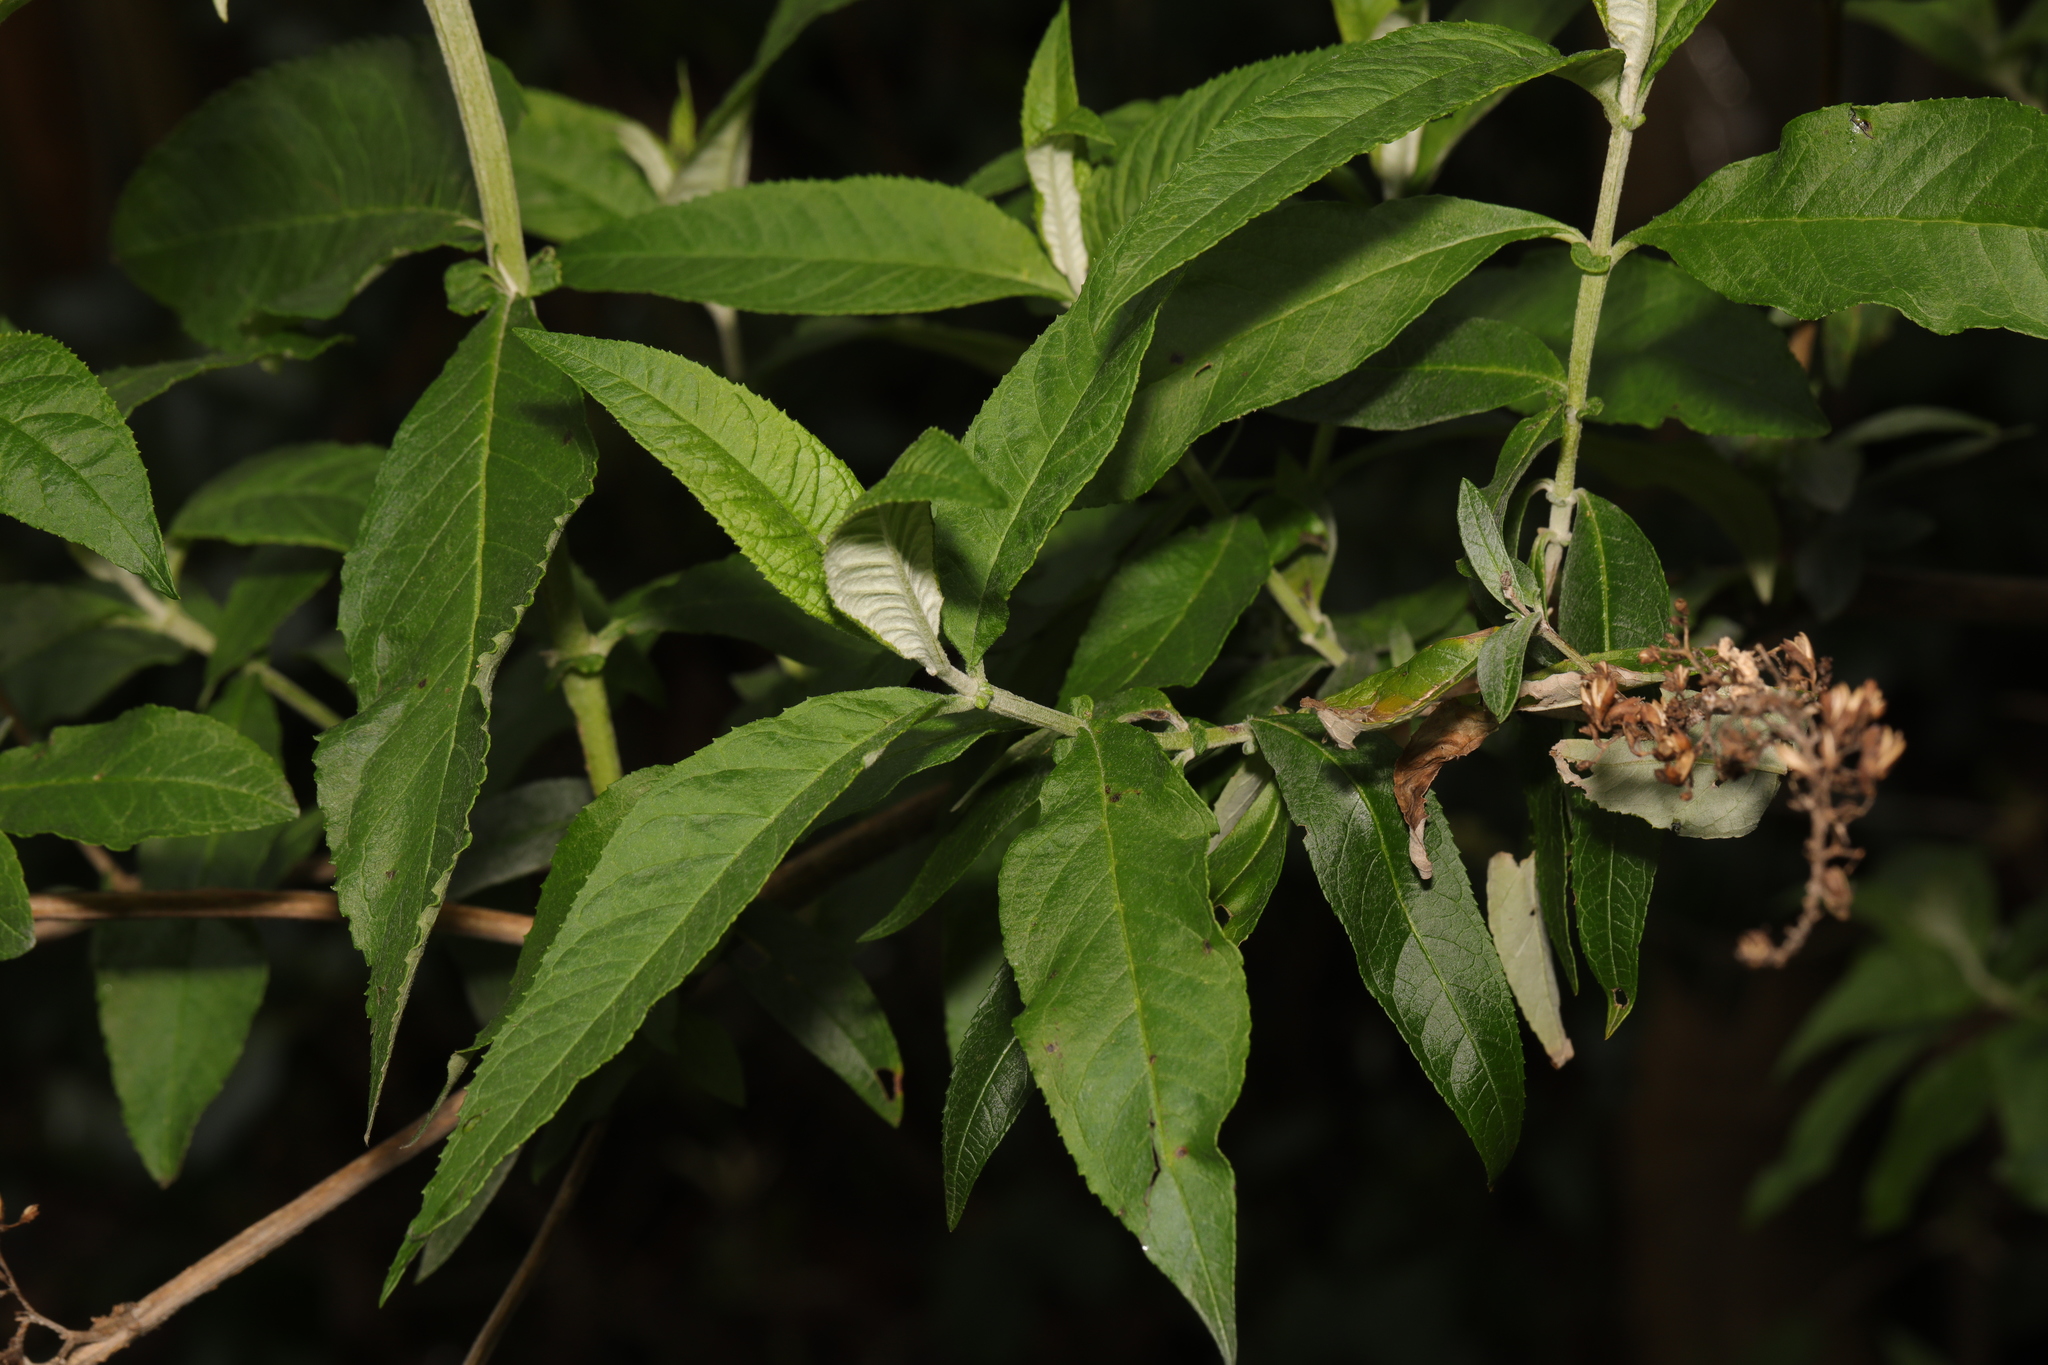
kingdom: Plantae
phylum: Tracheophyta
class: Magnoliopsida
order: Lamiales
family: Scrophulariaceae
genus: Buddleja
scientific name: Buddleja davidii
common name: Butterfly-bush
